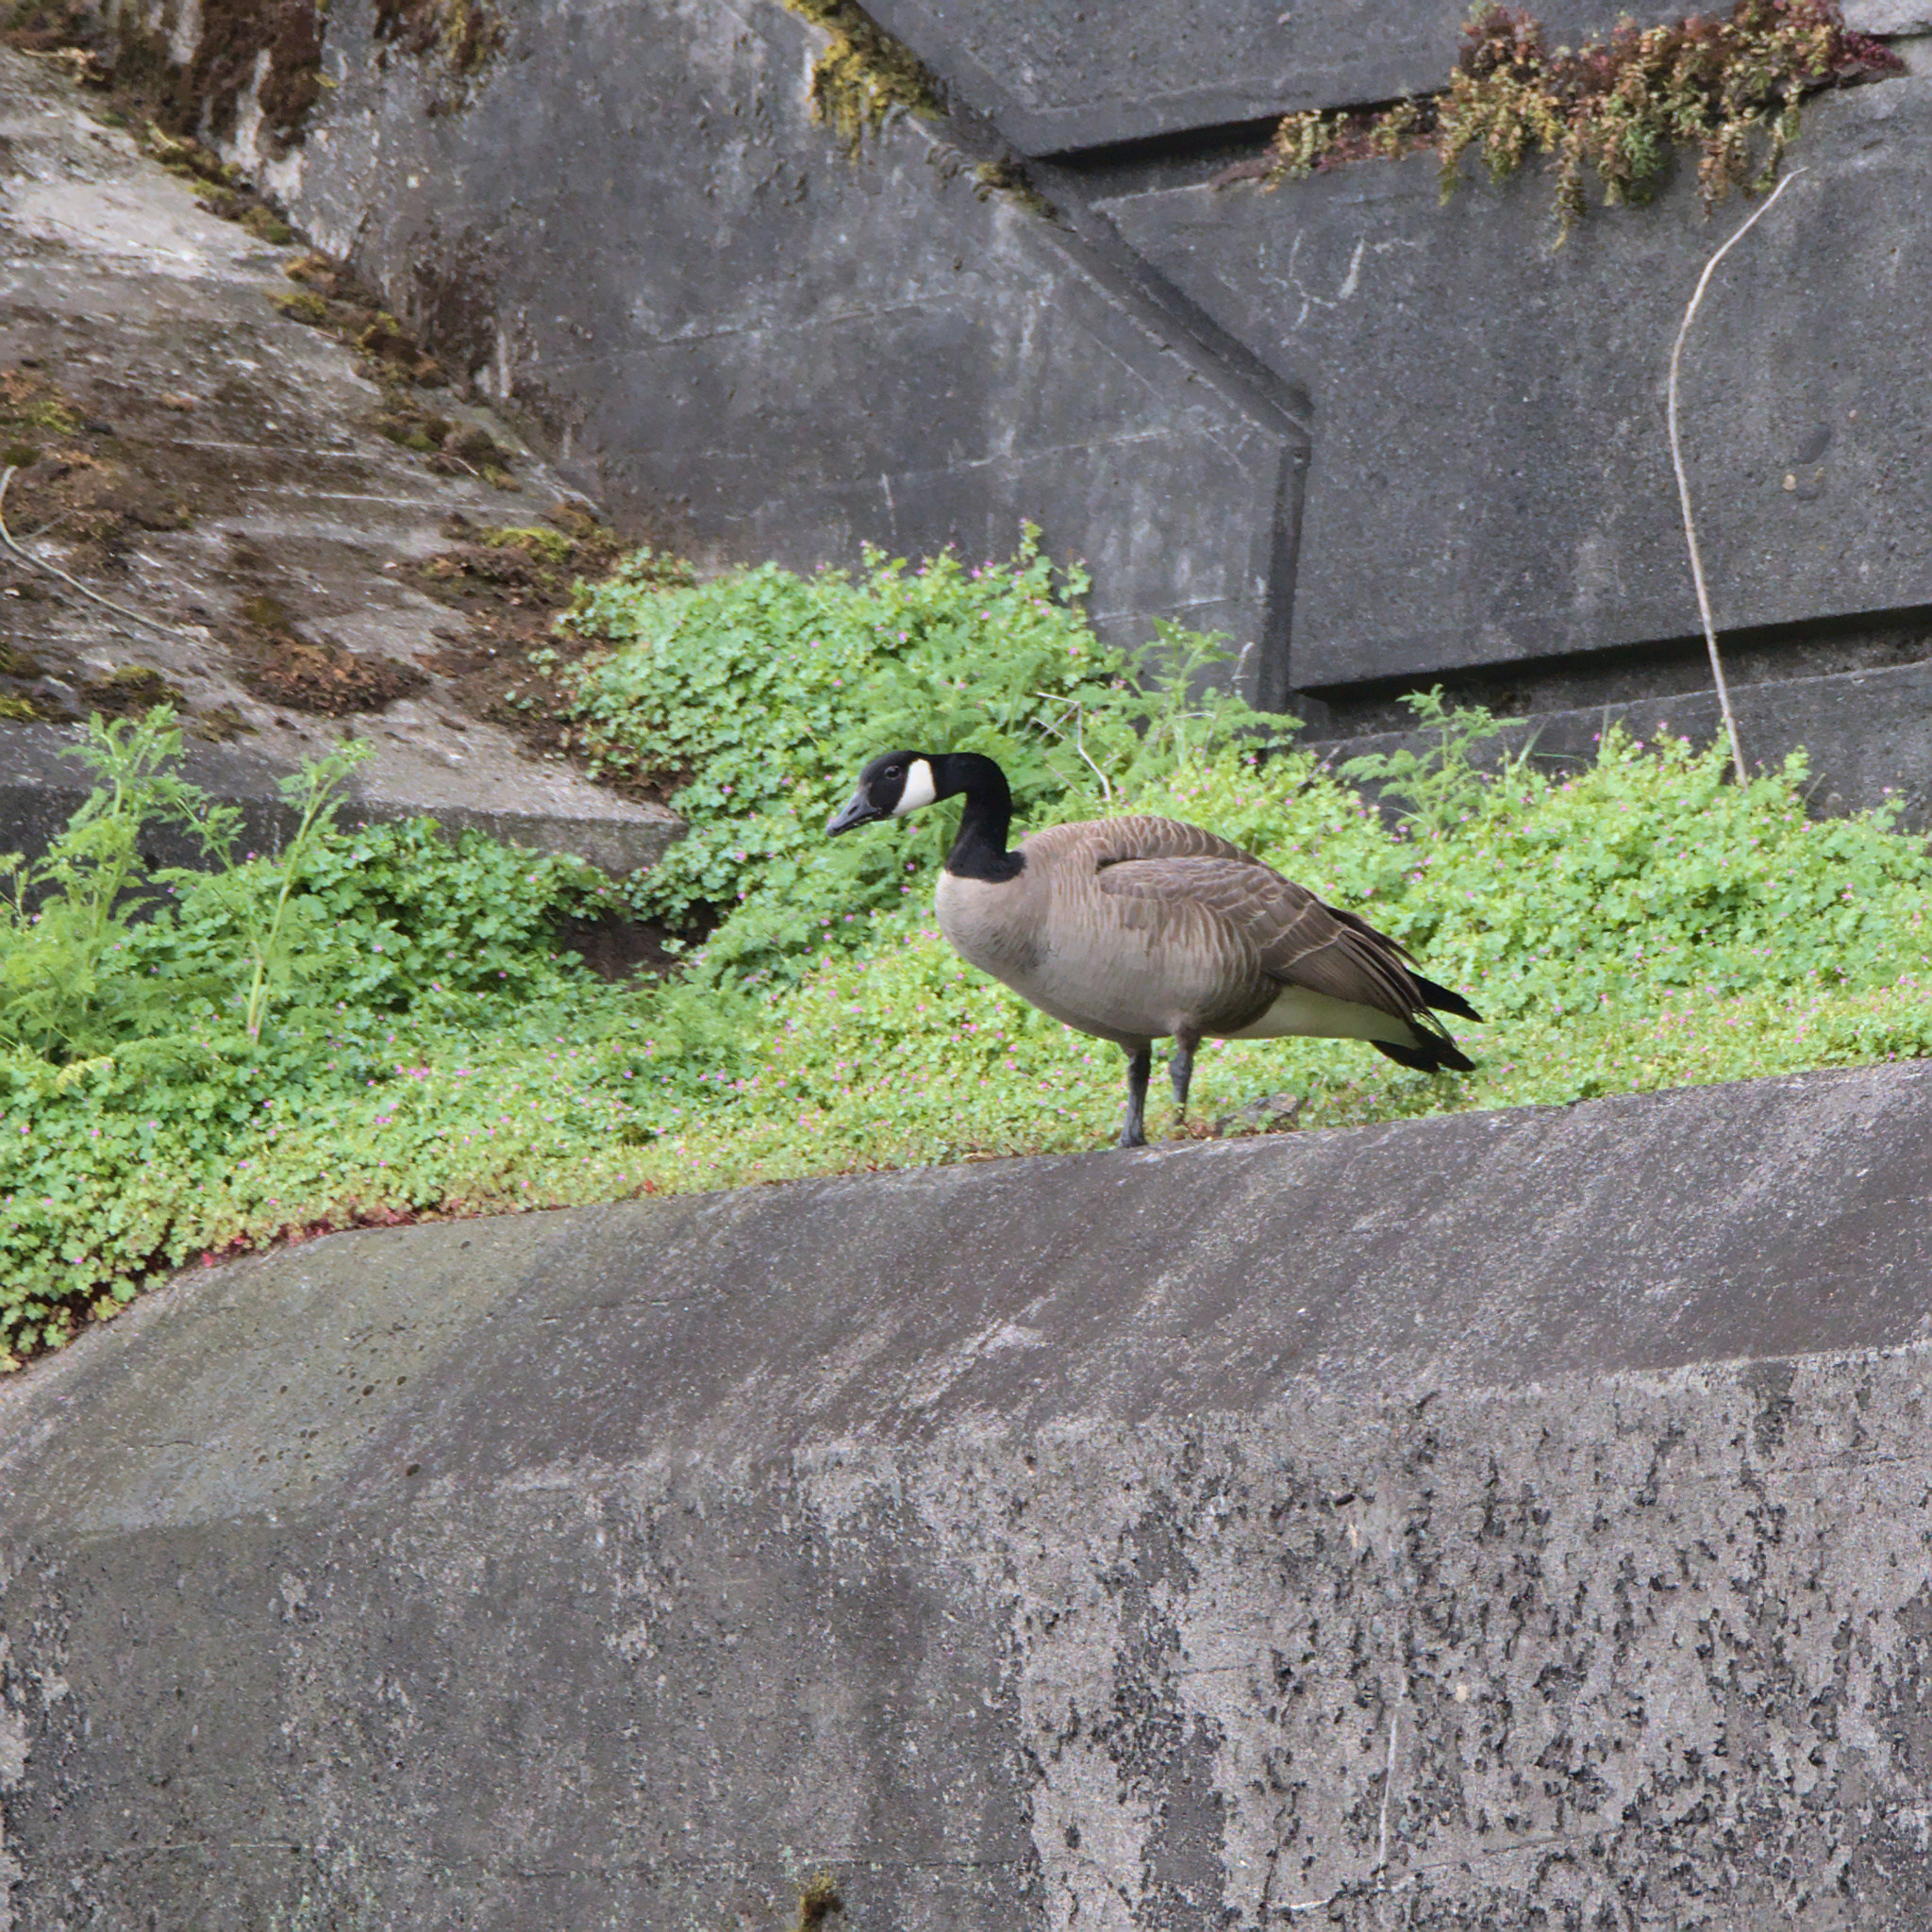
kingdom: Animalia
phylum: Chordata
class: Aves
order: Anseriformes
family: Anatidae
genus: Branta
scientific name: Branta canadensis
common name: Canada goose
